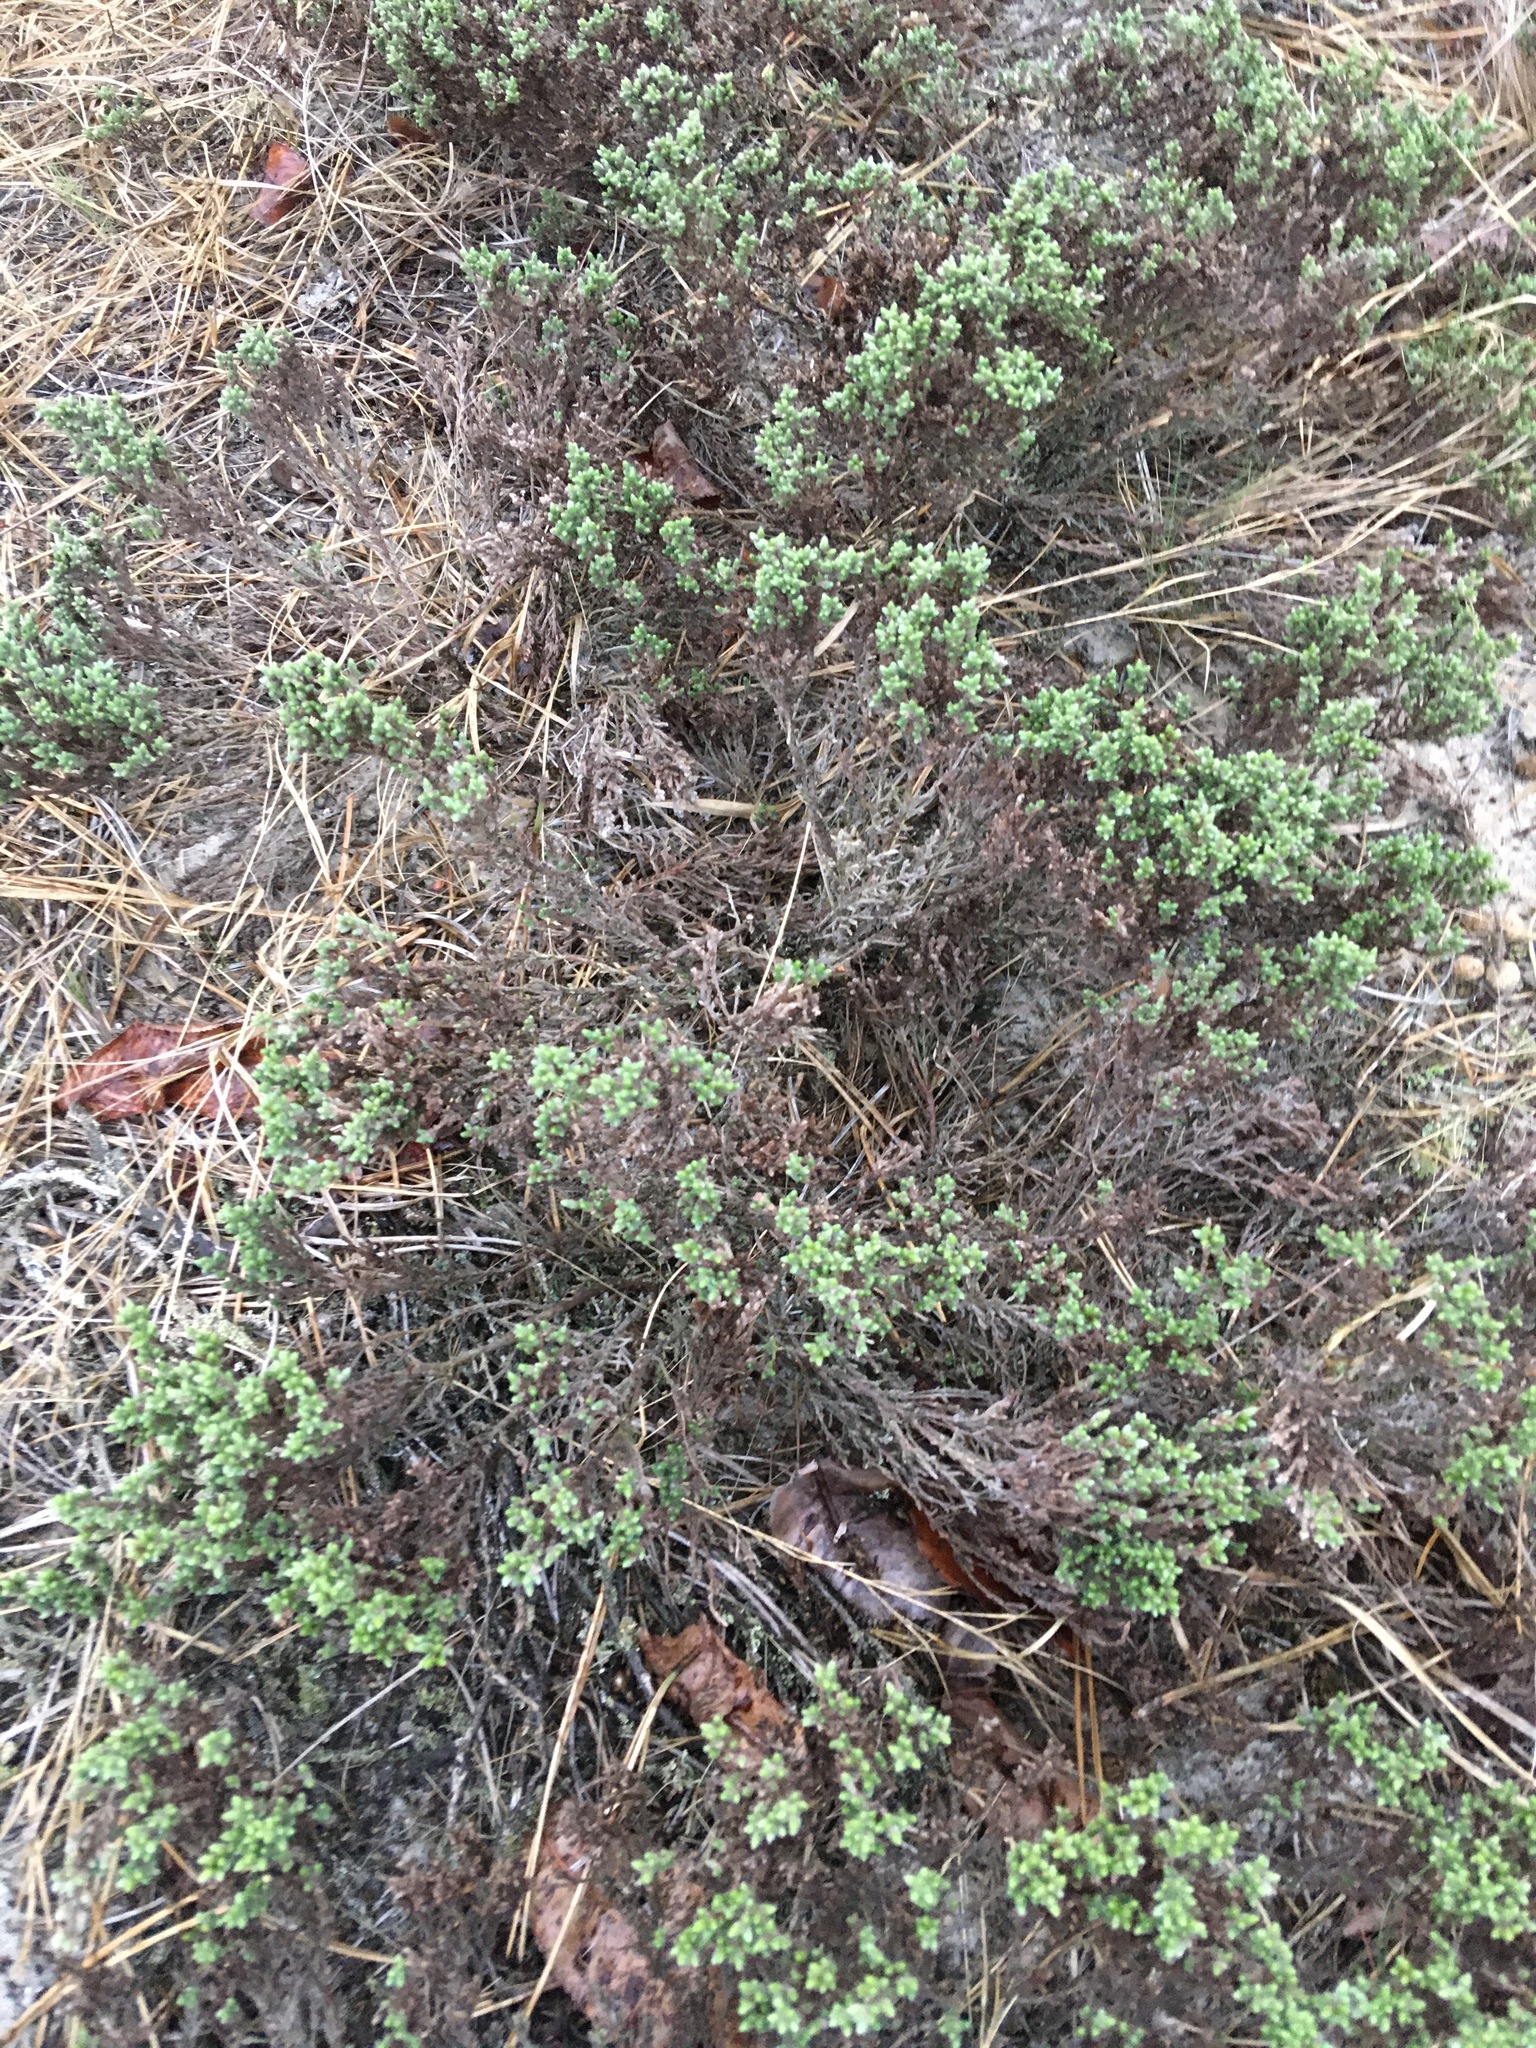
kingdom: Plantae
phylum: Tracheophyta
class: Magnoliopsida
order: Malvales
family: Cistaceae
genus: Hudsonia
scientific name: Hudsonia tomentosa
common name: Beach-heath
